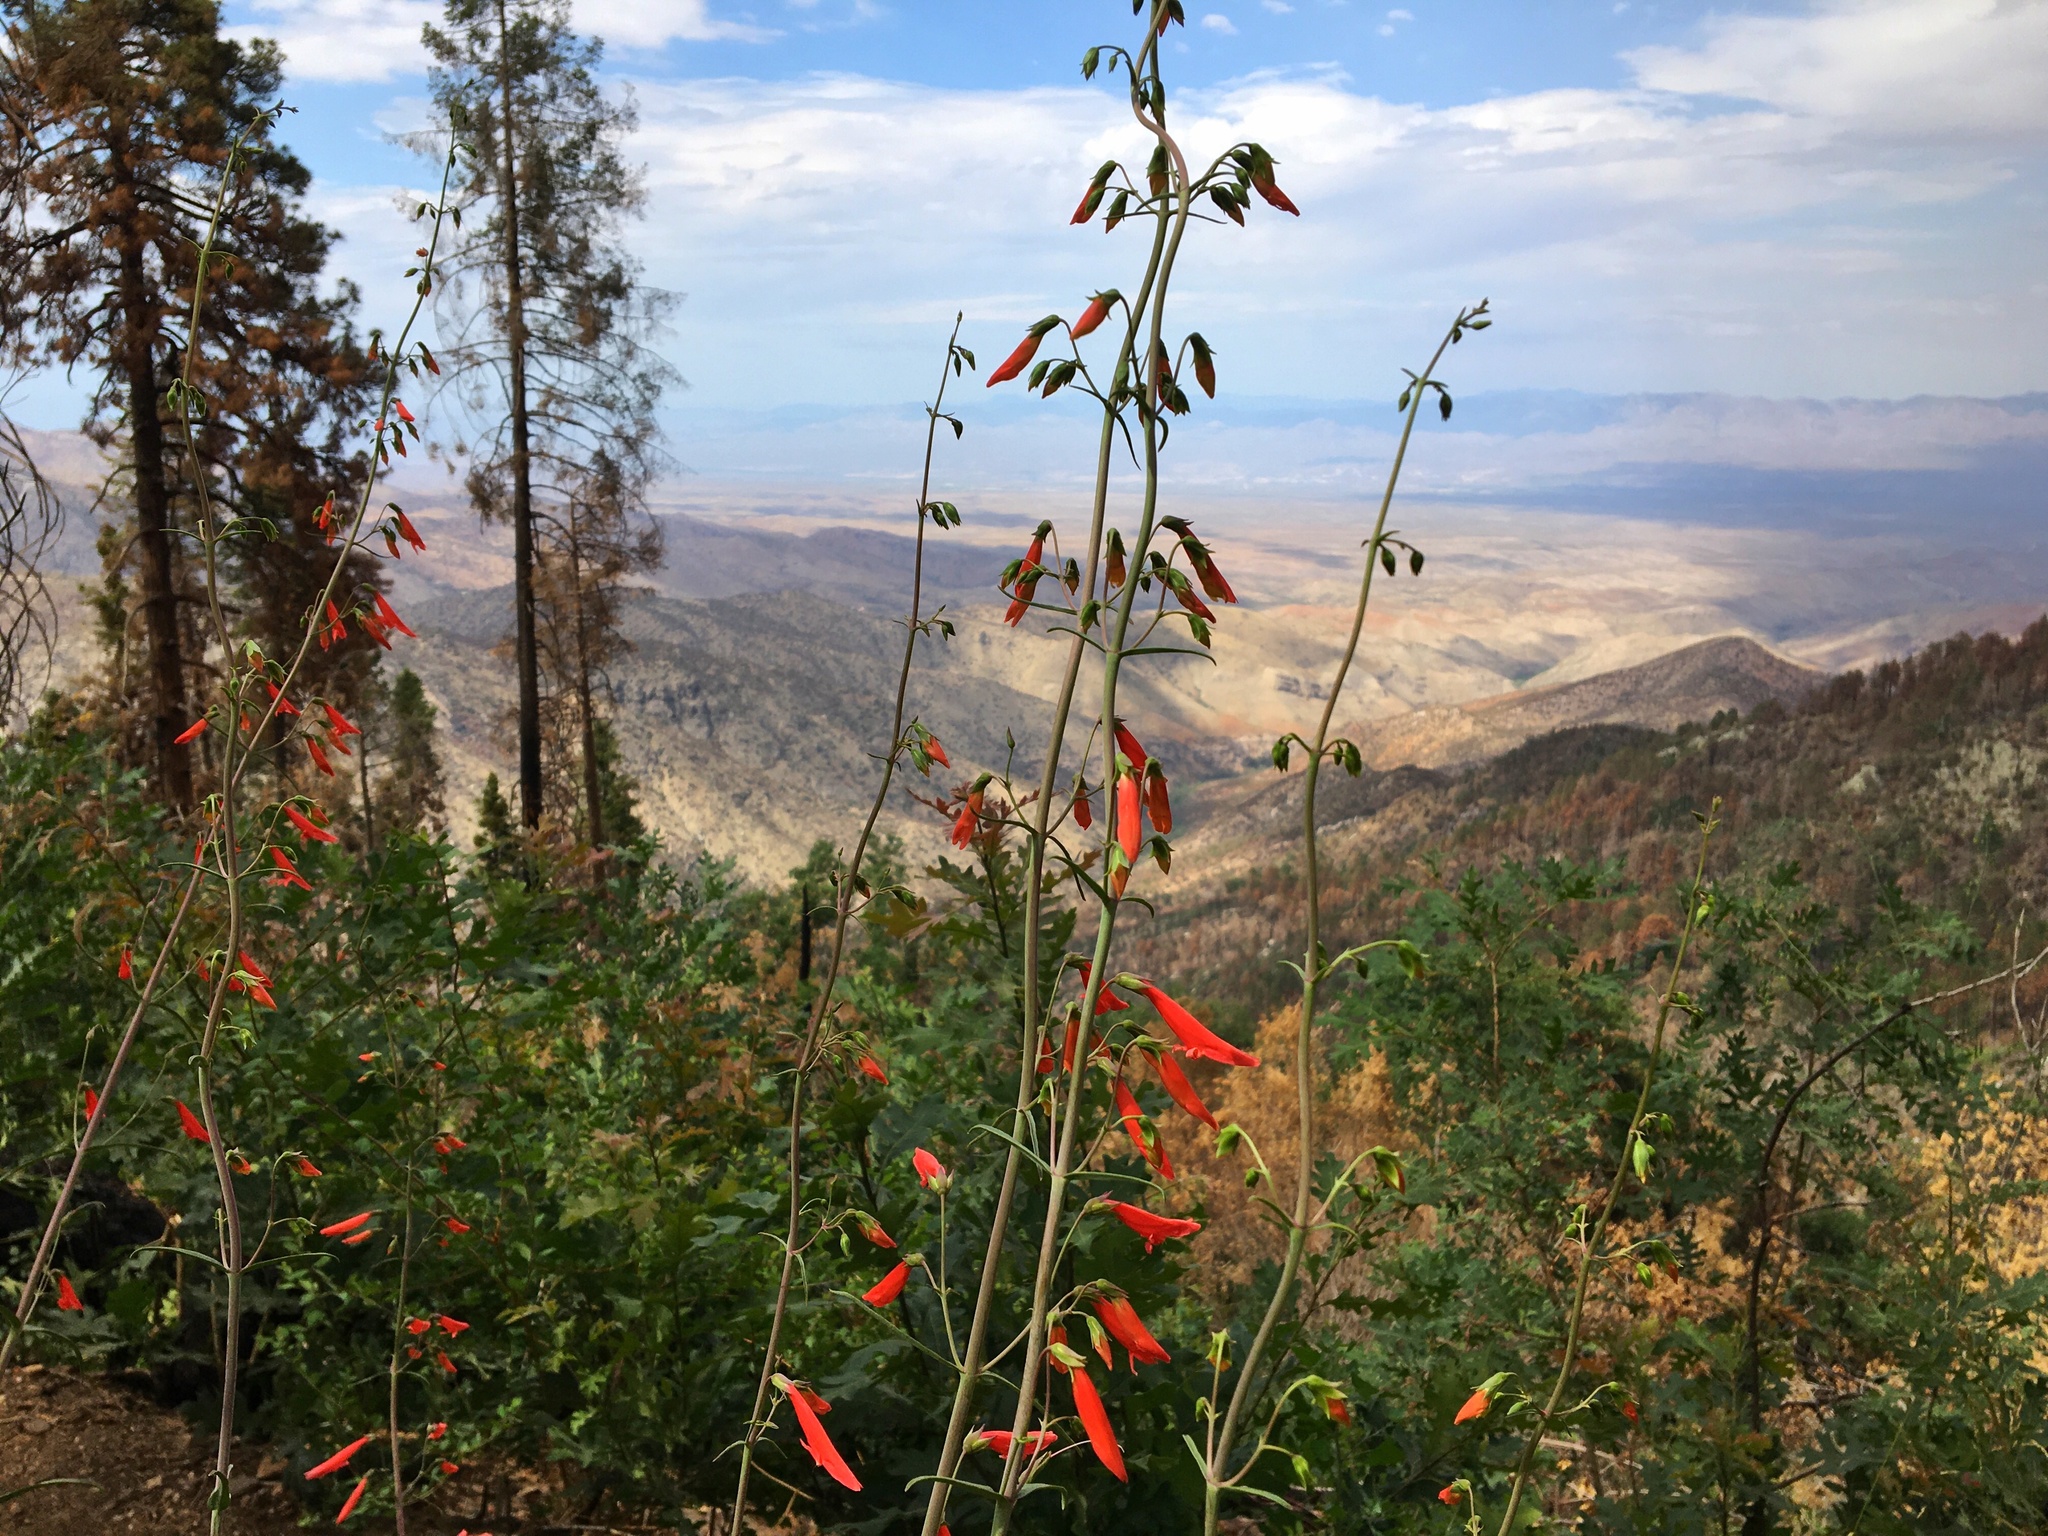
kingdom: Plantae
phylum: Tracheophyta
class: Magnoliopsida
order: Lamiales
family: Plantaginaceae
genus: Penstemon
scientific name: Penstemon barbatus
